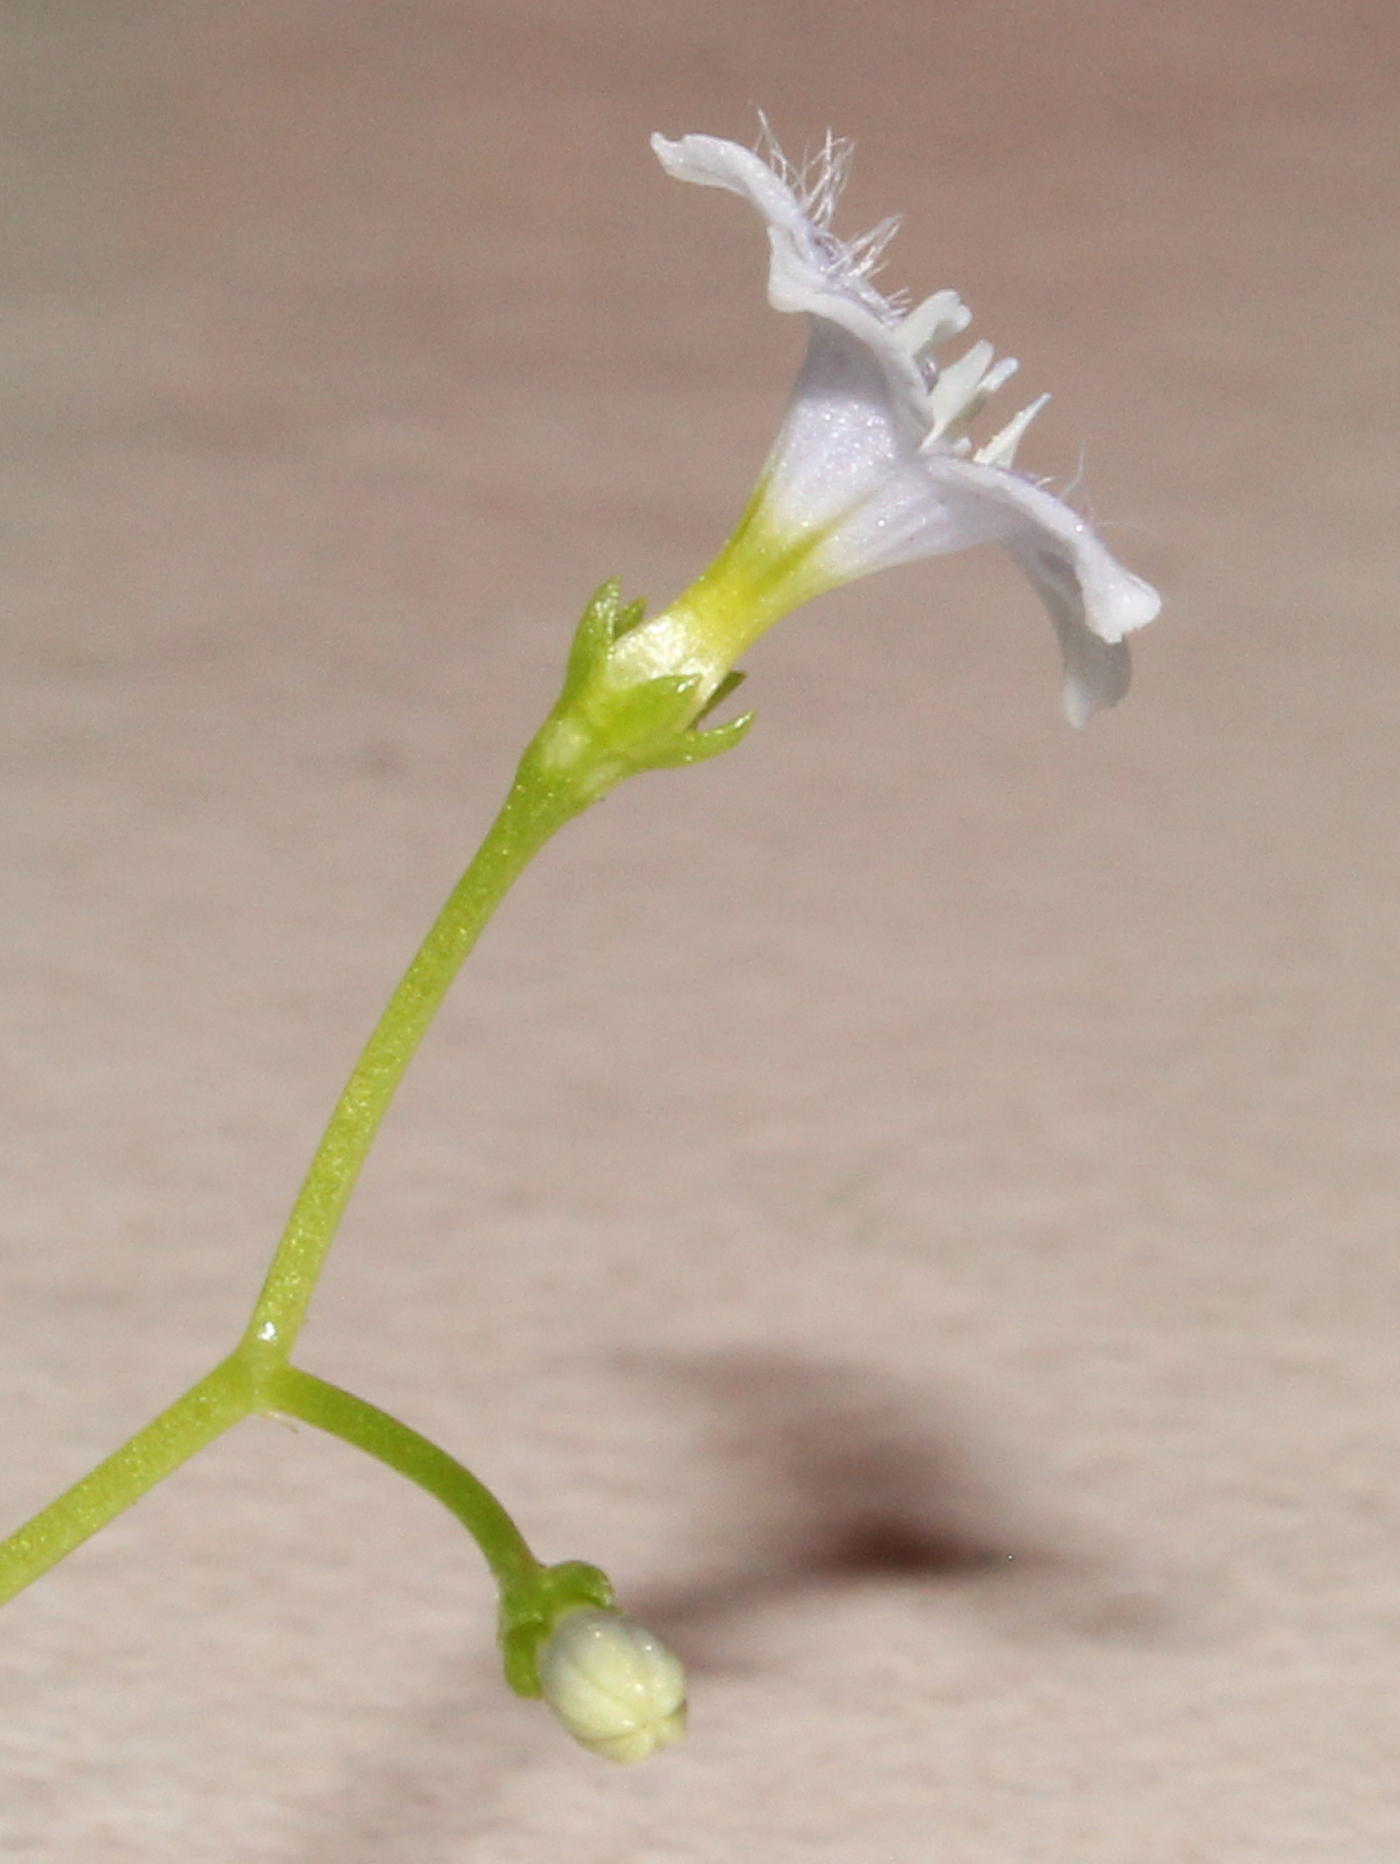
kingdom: Plantae
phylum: Tracheophyta
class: Magnoliopsida
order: Gentianales
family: Rubiaceae
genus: Pentodon
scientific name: Pentodon pentandrus
